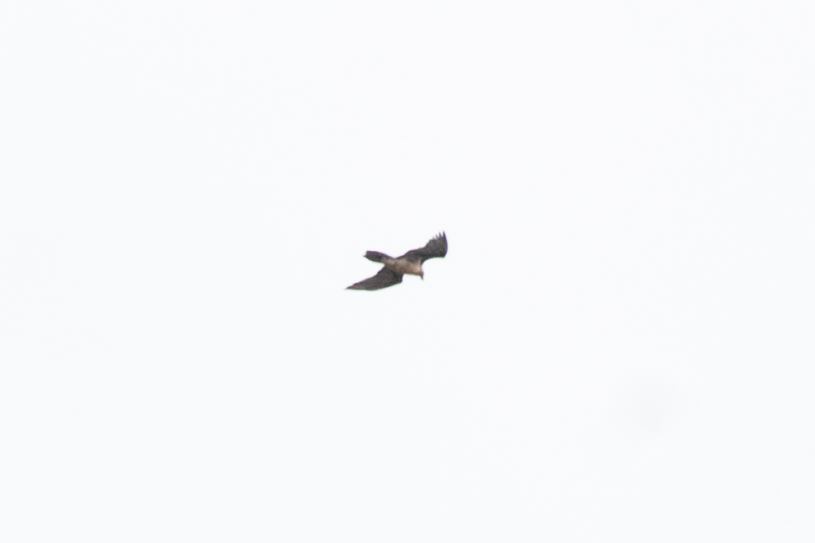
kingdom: Animalia
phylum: Chordata
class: Aves
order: Accipitriformes
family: Accipitridae
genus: Gypaetus
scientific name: Gypaetus barbatus
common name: Bearded vulture
